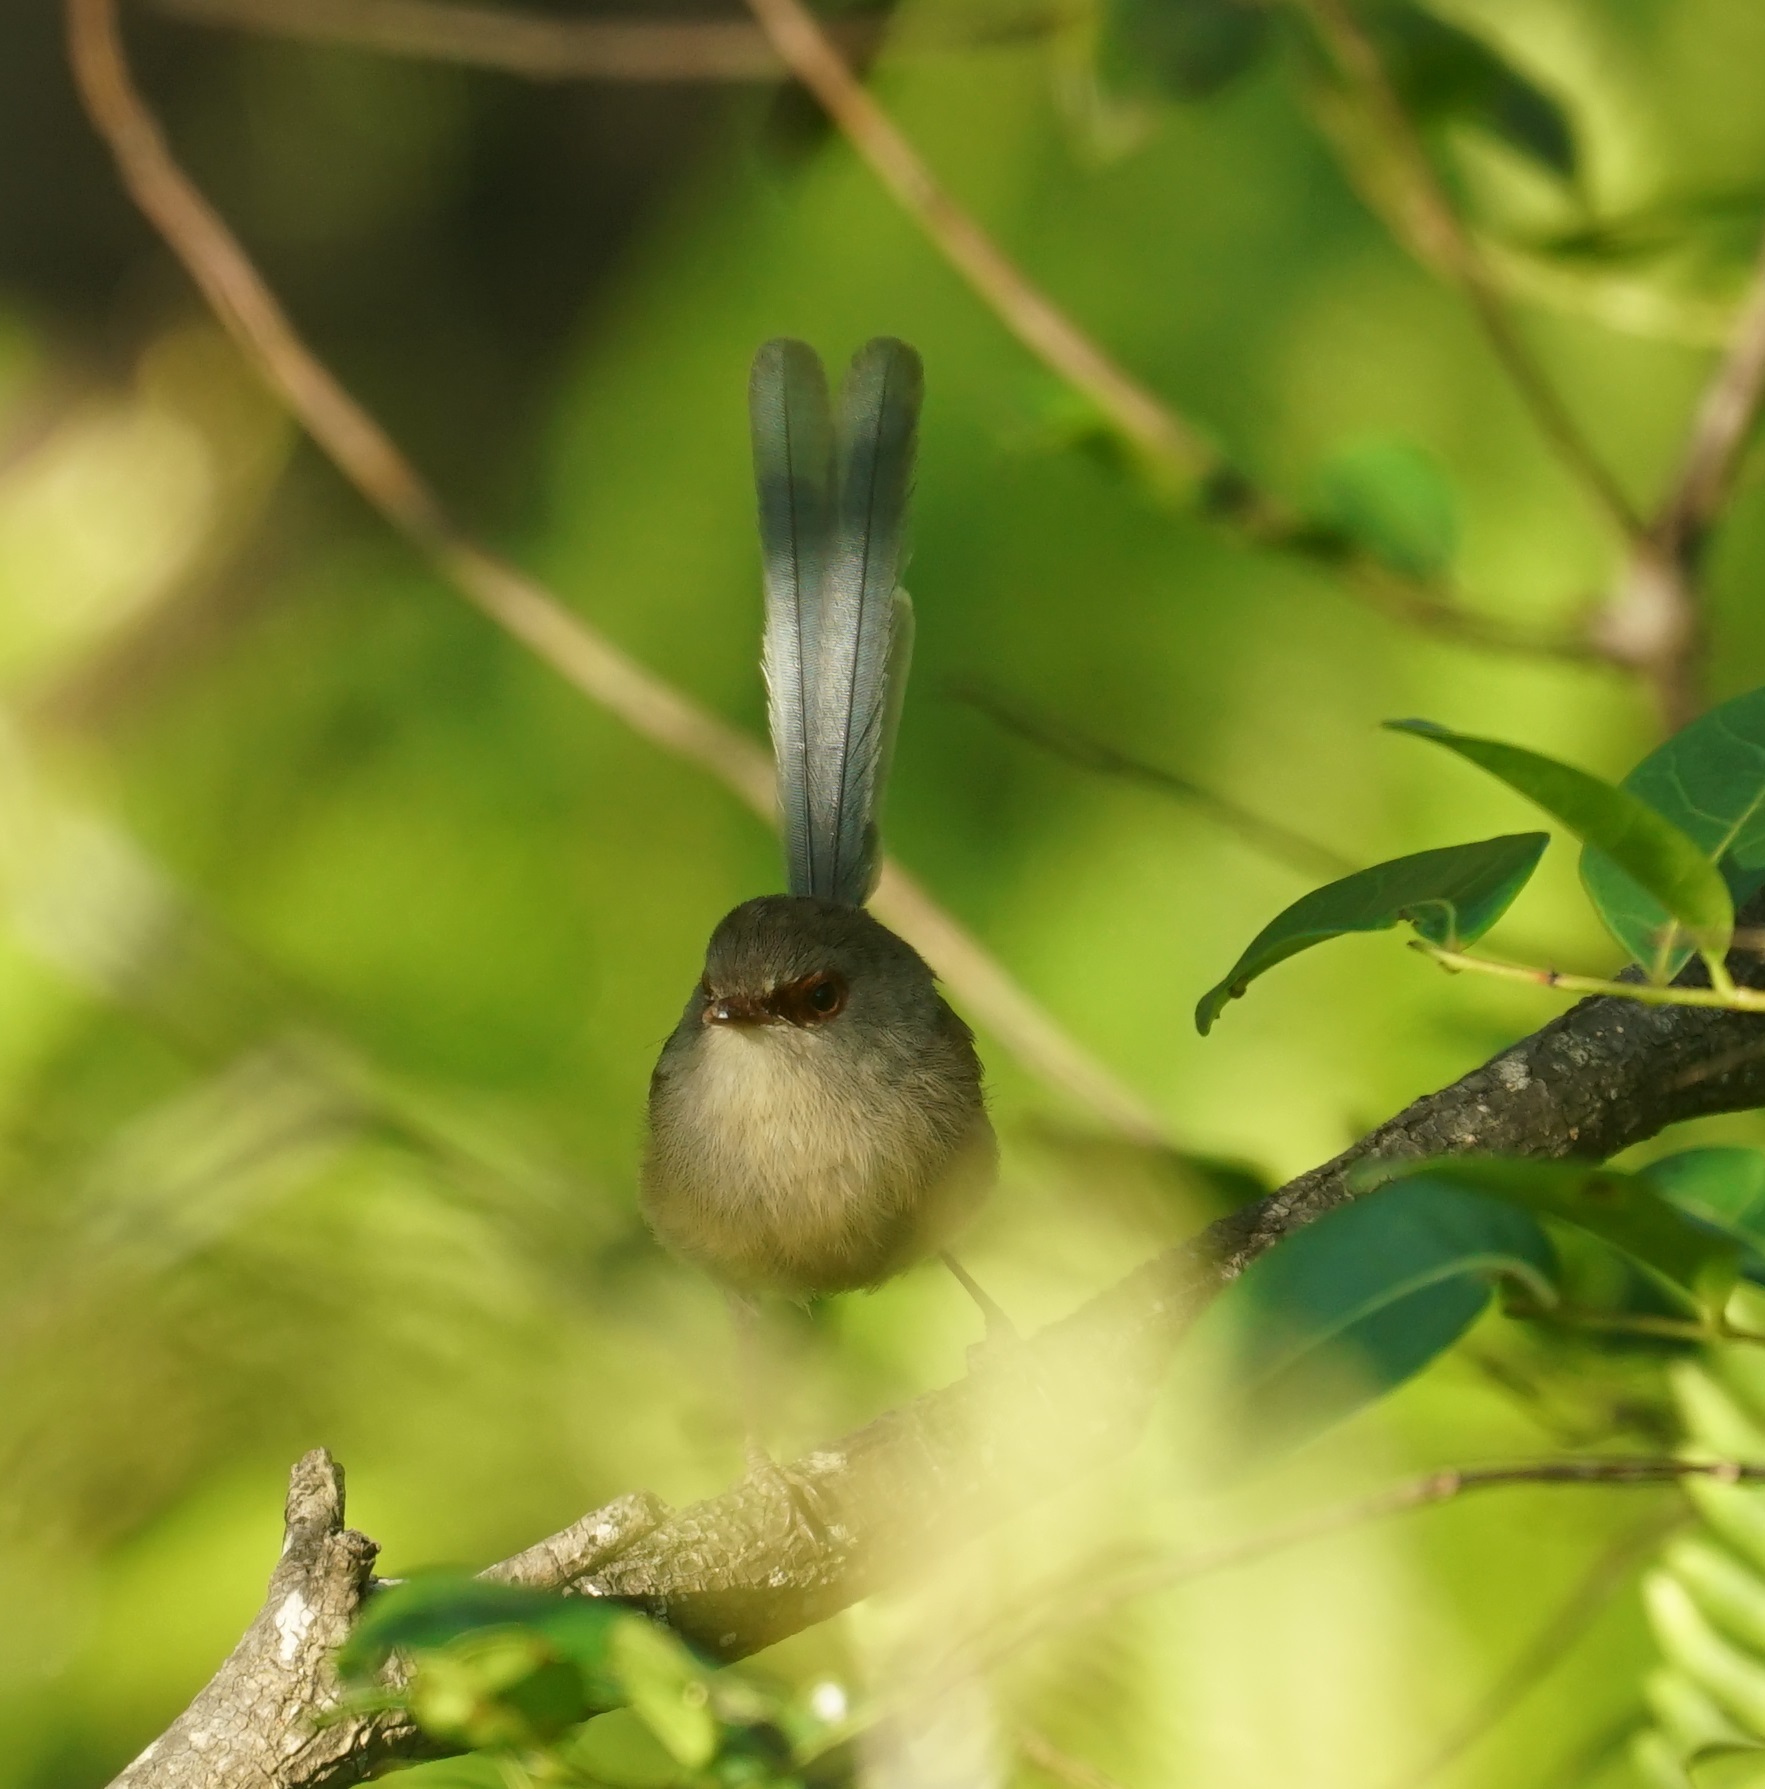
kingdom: Animalia
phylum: Chordata
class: Aves
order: Passeriformes
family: Maluridae
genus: Malurus
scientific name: Malurus lamberti
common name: Variegated fairywren
